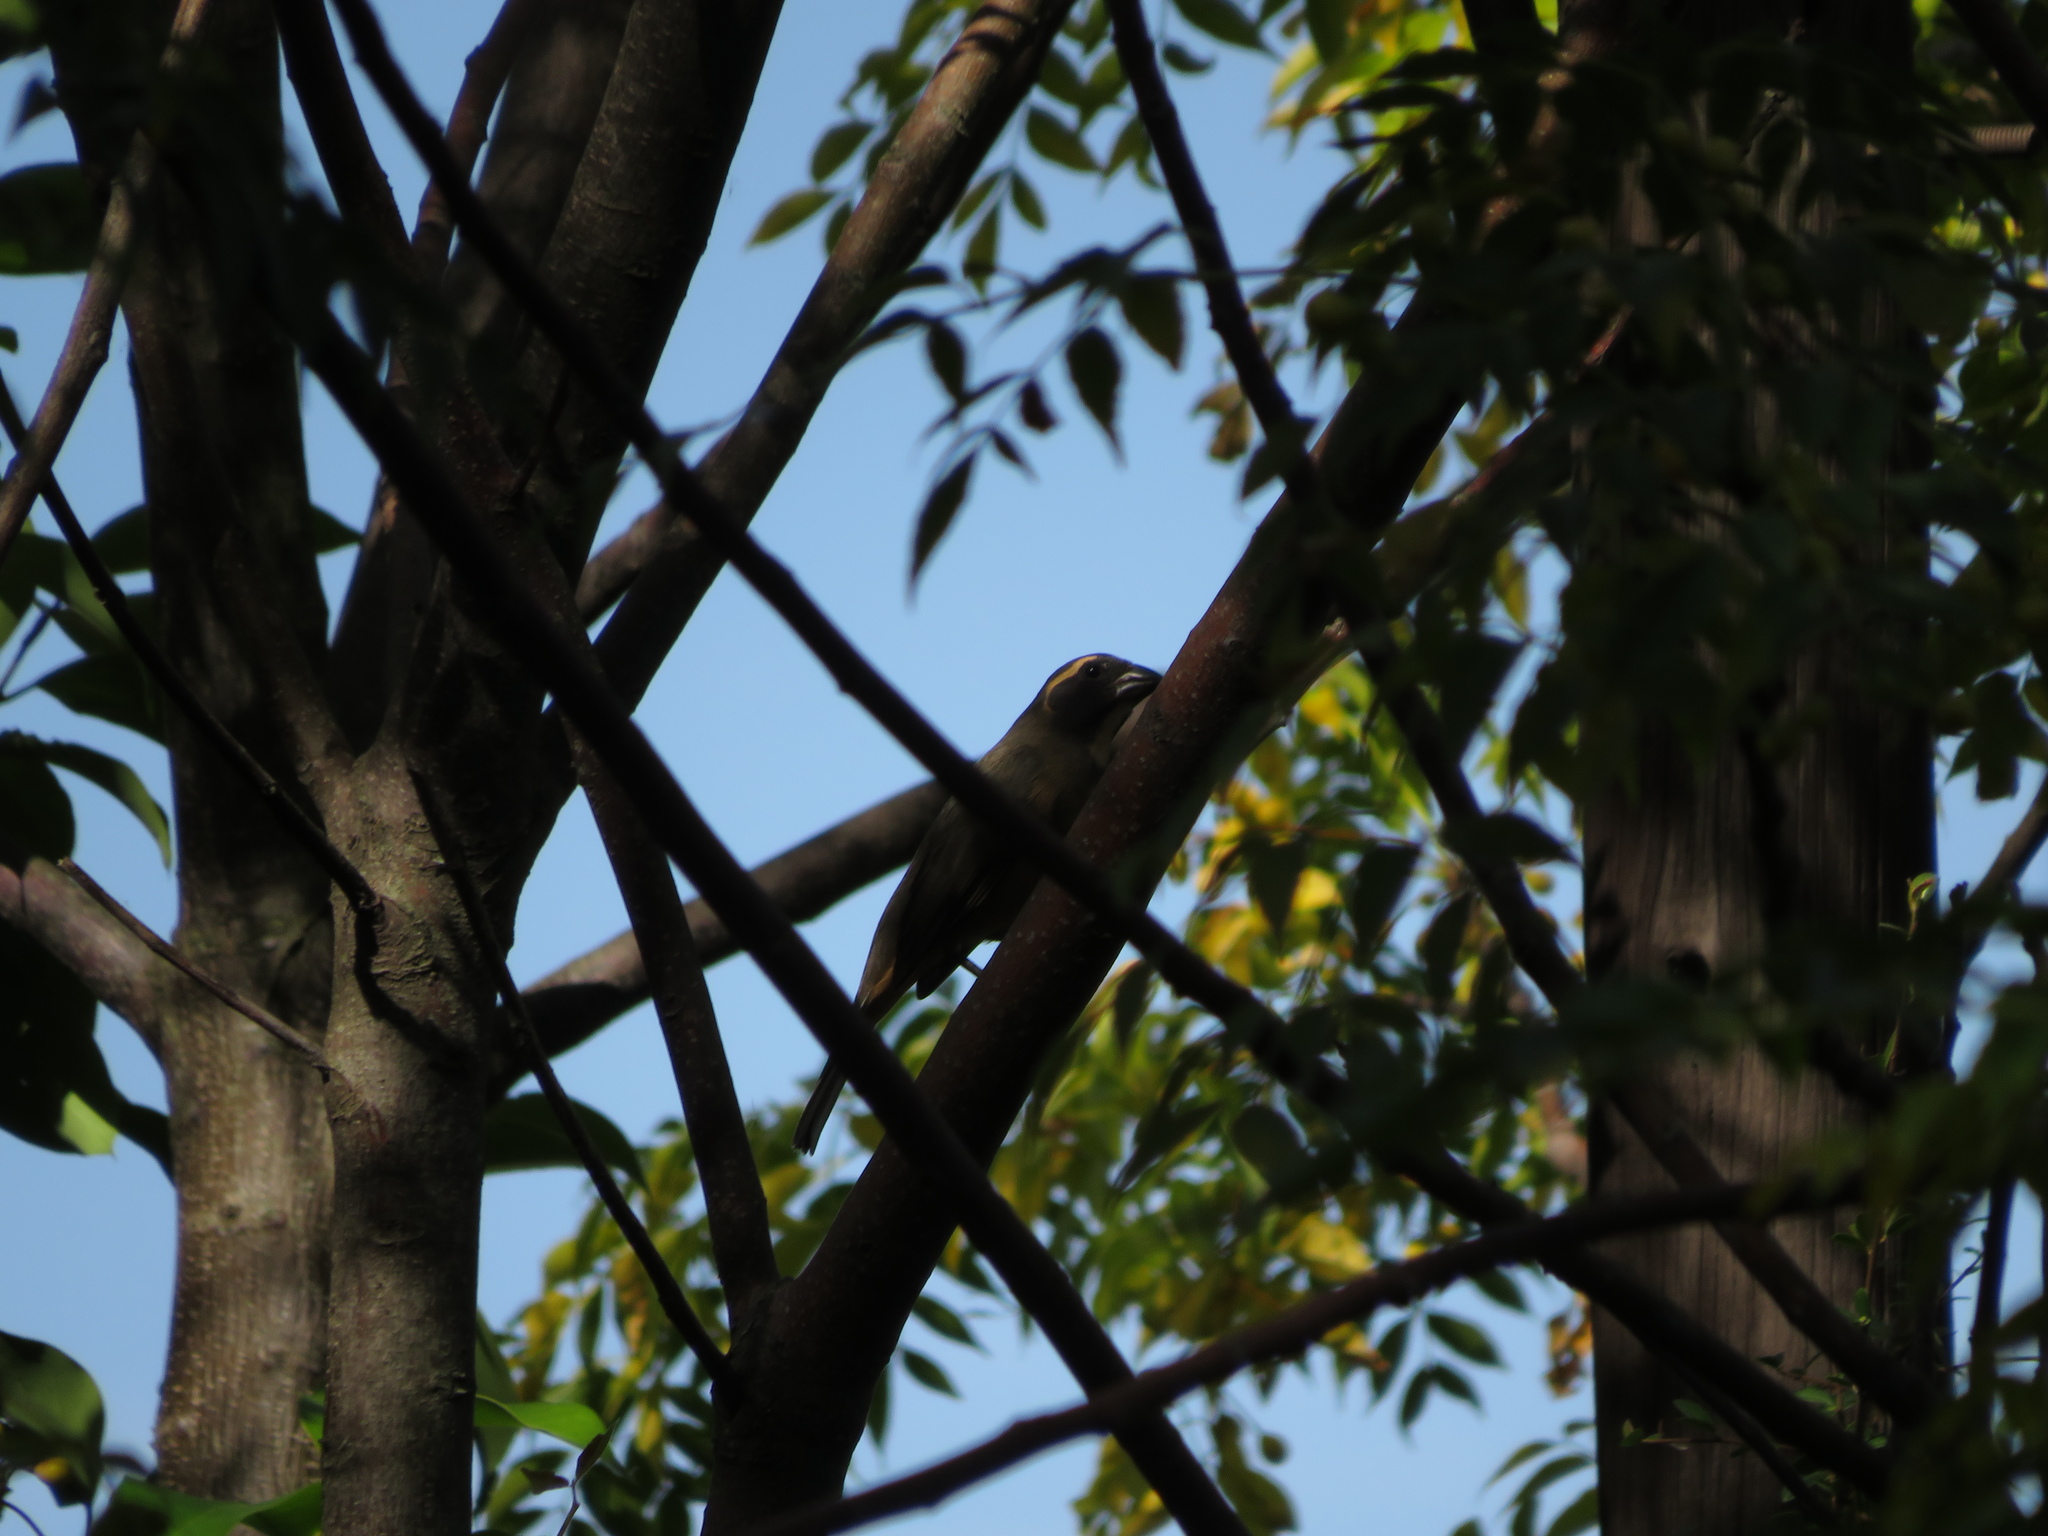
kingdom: Animalia
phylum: Chordata
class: Aves
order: Passeriformes
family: Thraupidae
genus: Saltator
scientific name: Saltator aurantiirostris
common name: Golden-billed saltator
